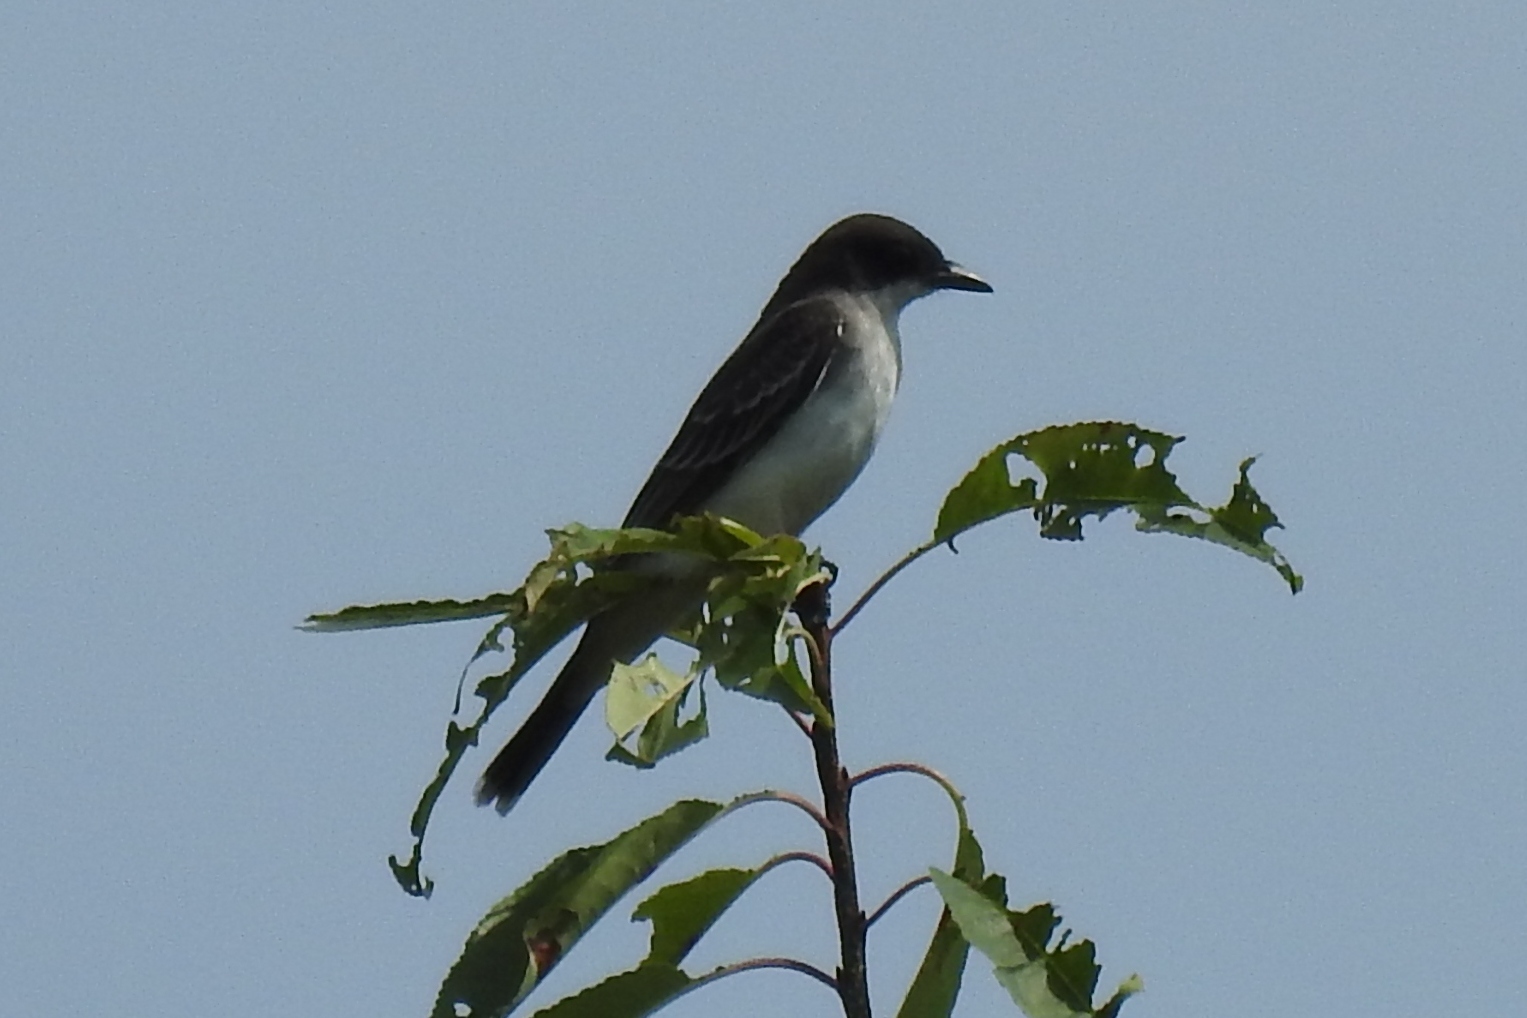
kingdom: Animalia
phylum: Chordata
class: Aves
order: Passeriformes
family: Tyrannidae
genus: Tyrannus
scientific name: Tyrannus tyrannus
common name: Eastern kingbird
